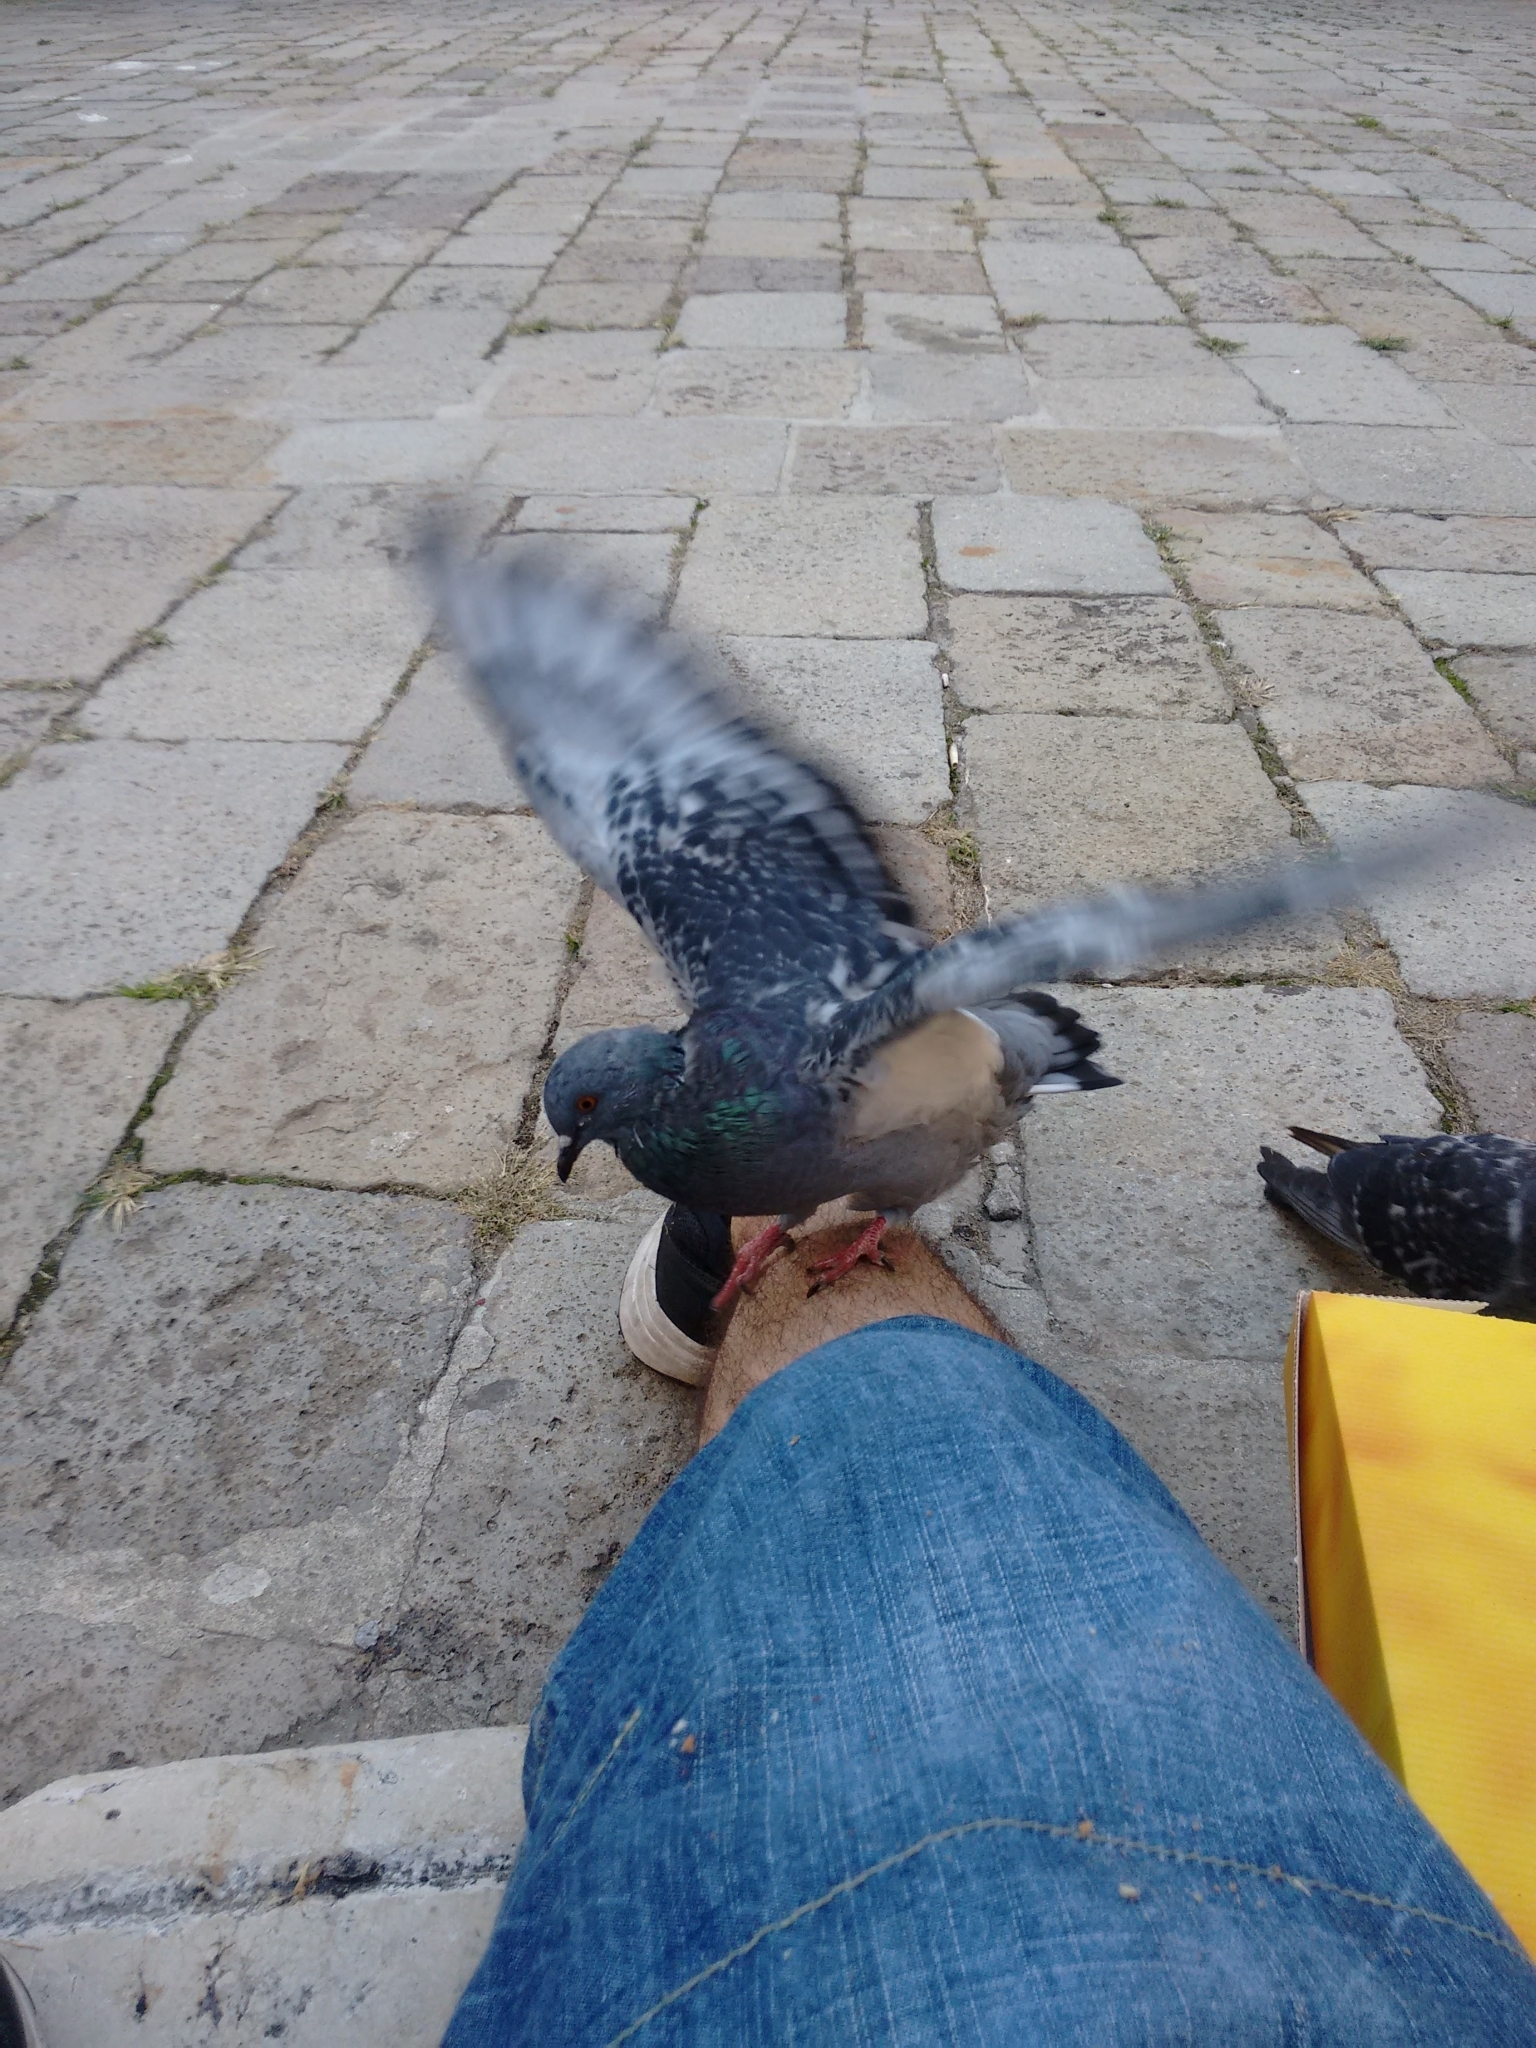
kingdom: Animalia
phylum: Chordata
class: Aves
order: Columbiformes
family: Columbidae
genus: Columba
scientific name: Columba livia
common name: Rock pigeon
